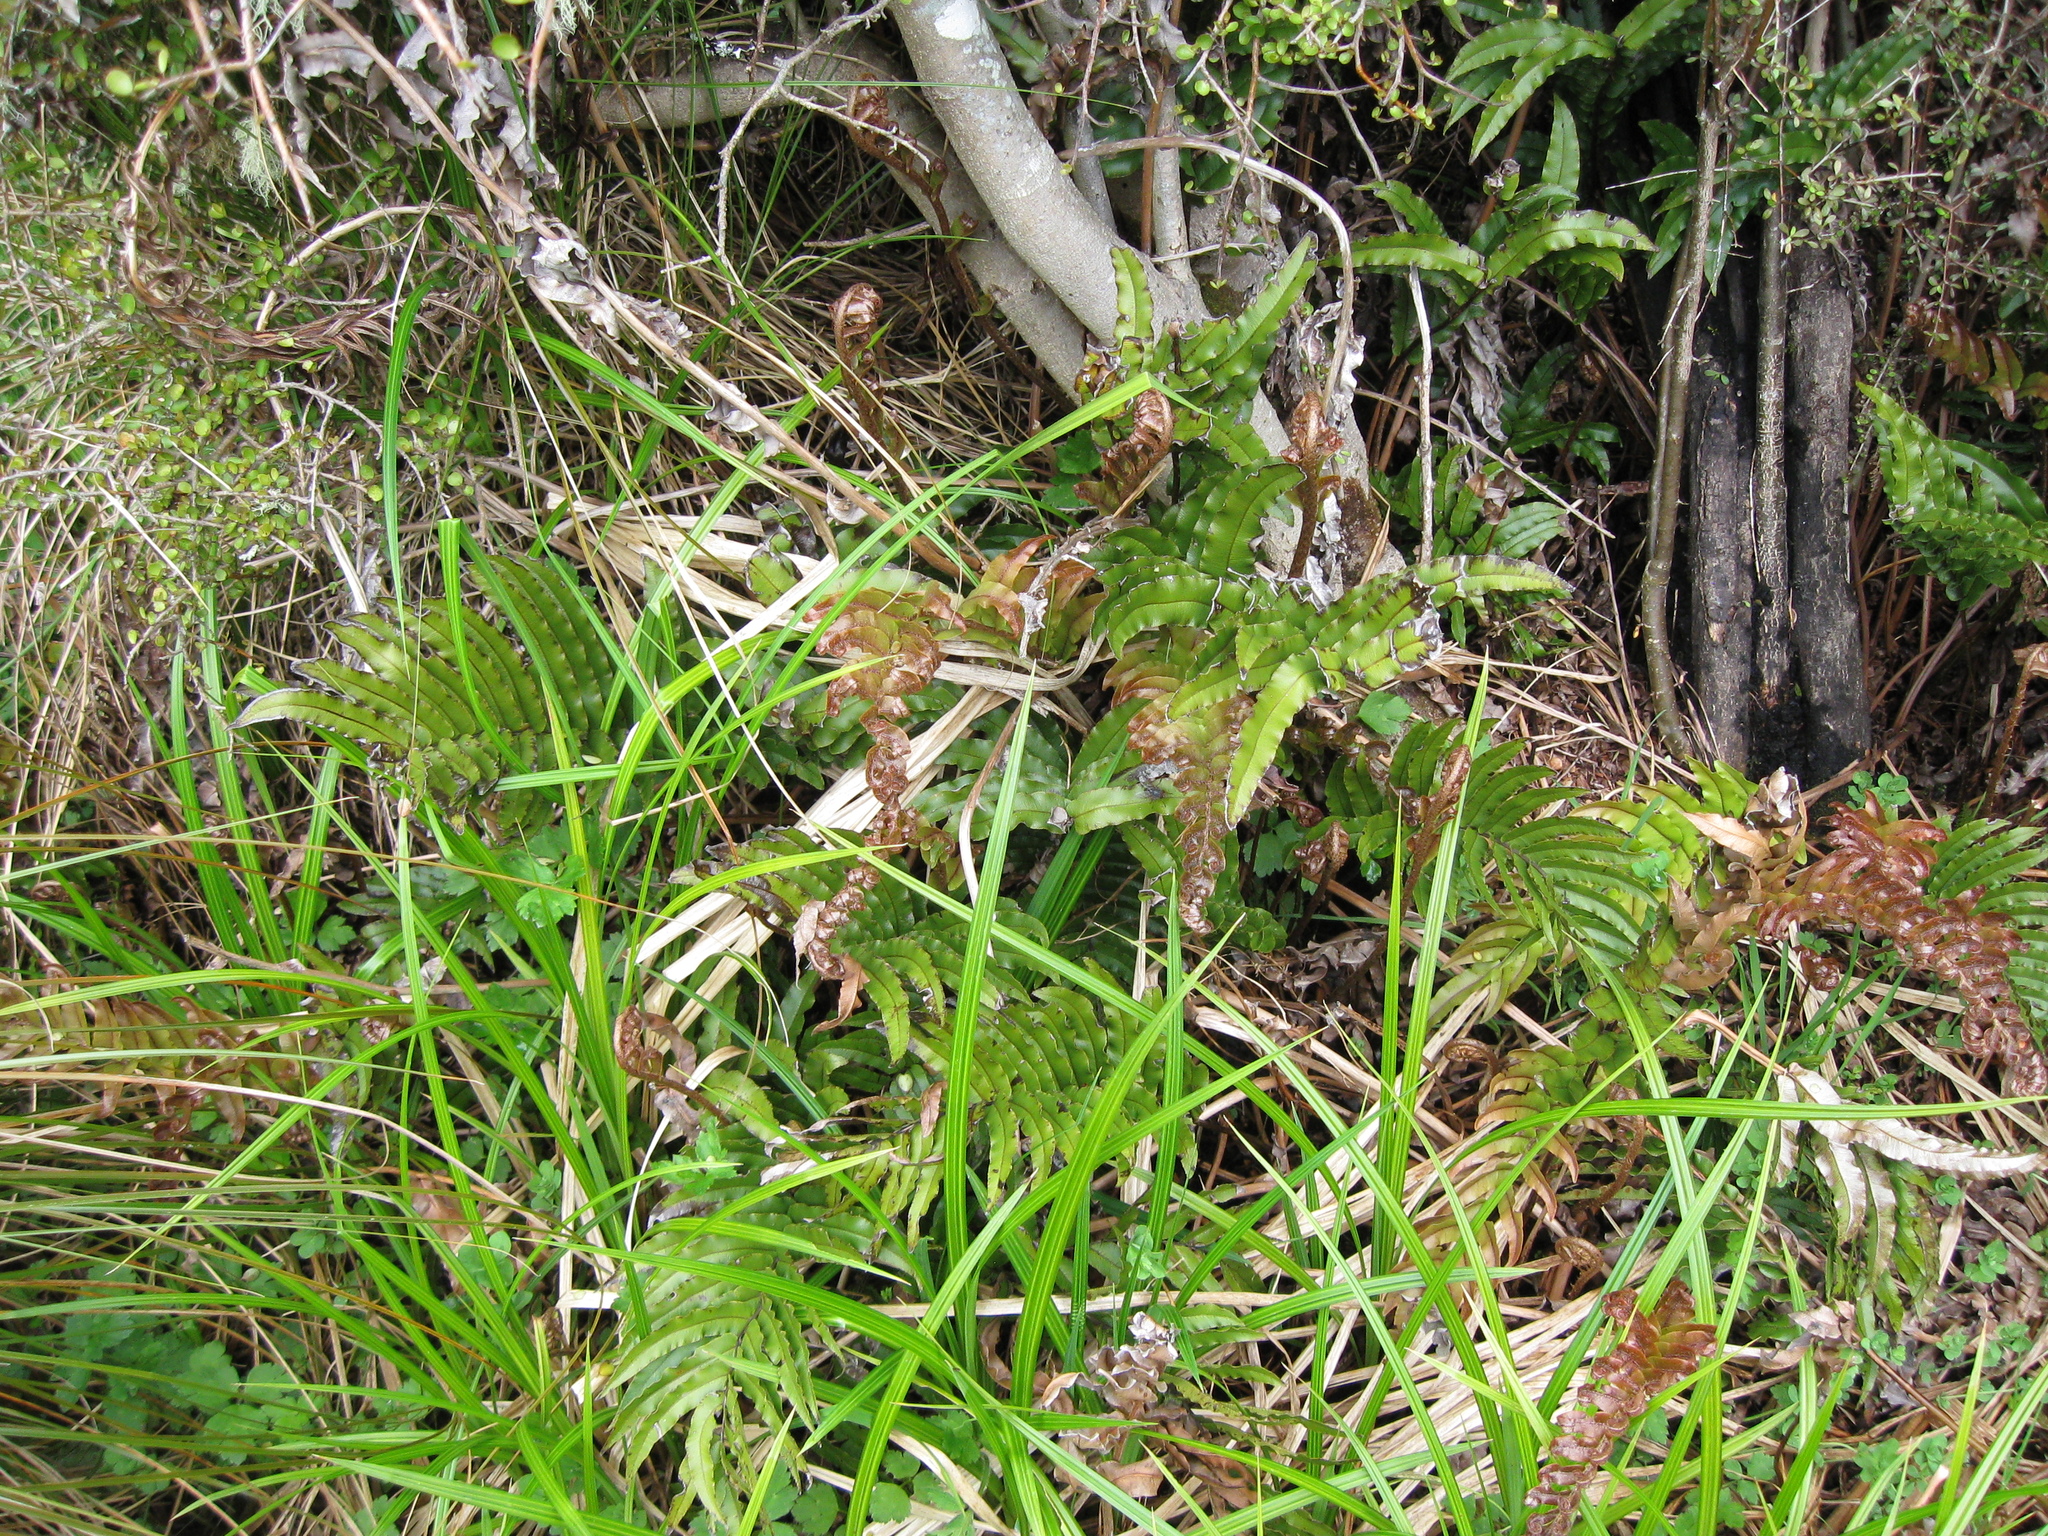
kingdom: Plantae
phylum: Tracheophyta
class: Polypodiopsida
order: Polypodiales
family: Blechnaceae
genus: Parablechnum
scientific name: Parablechnum montanum
